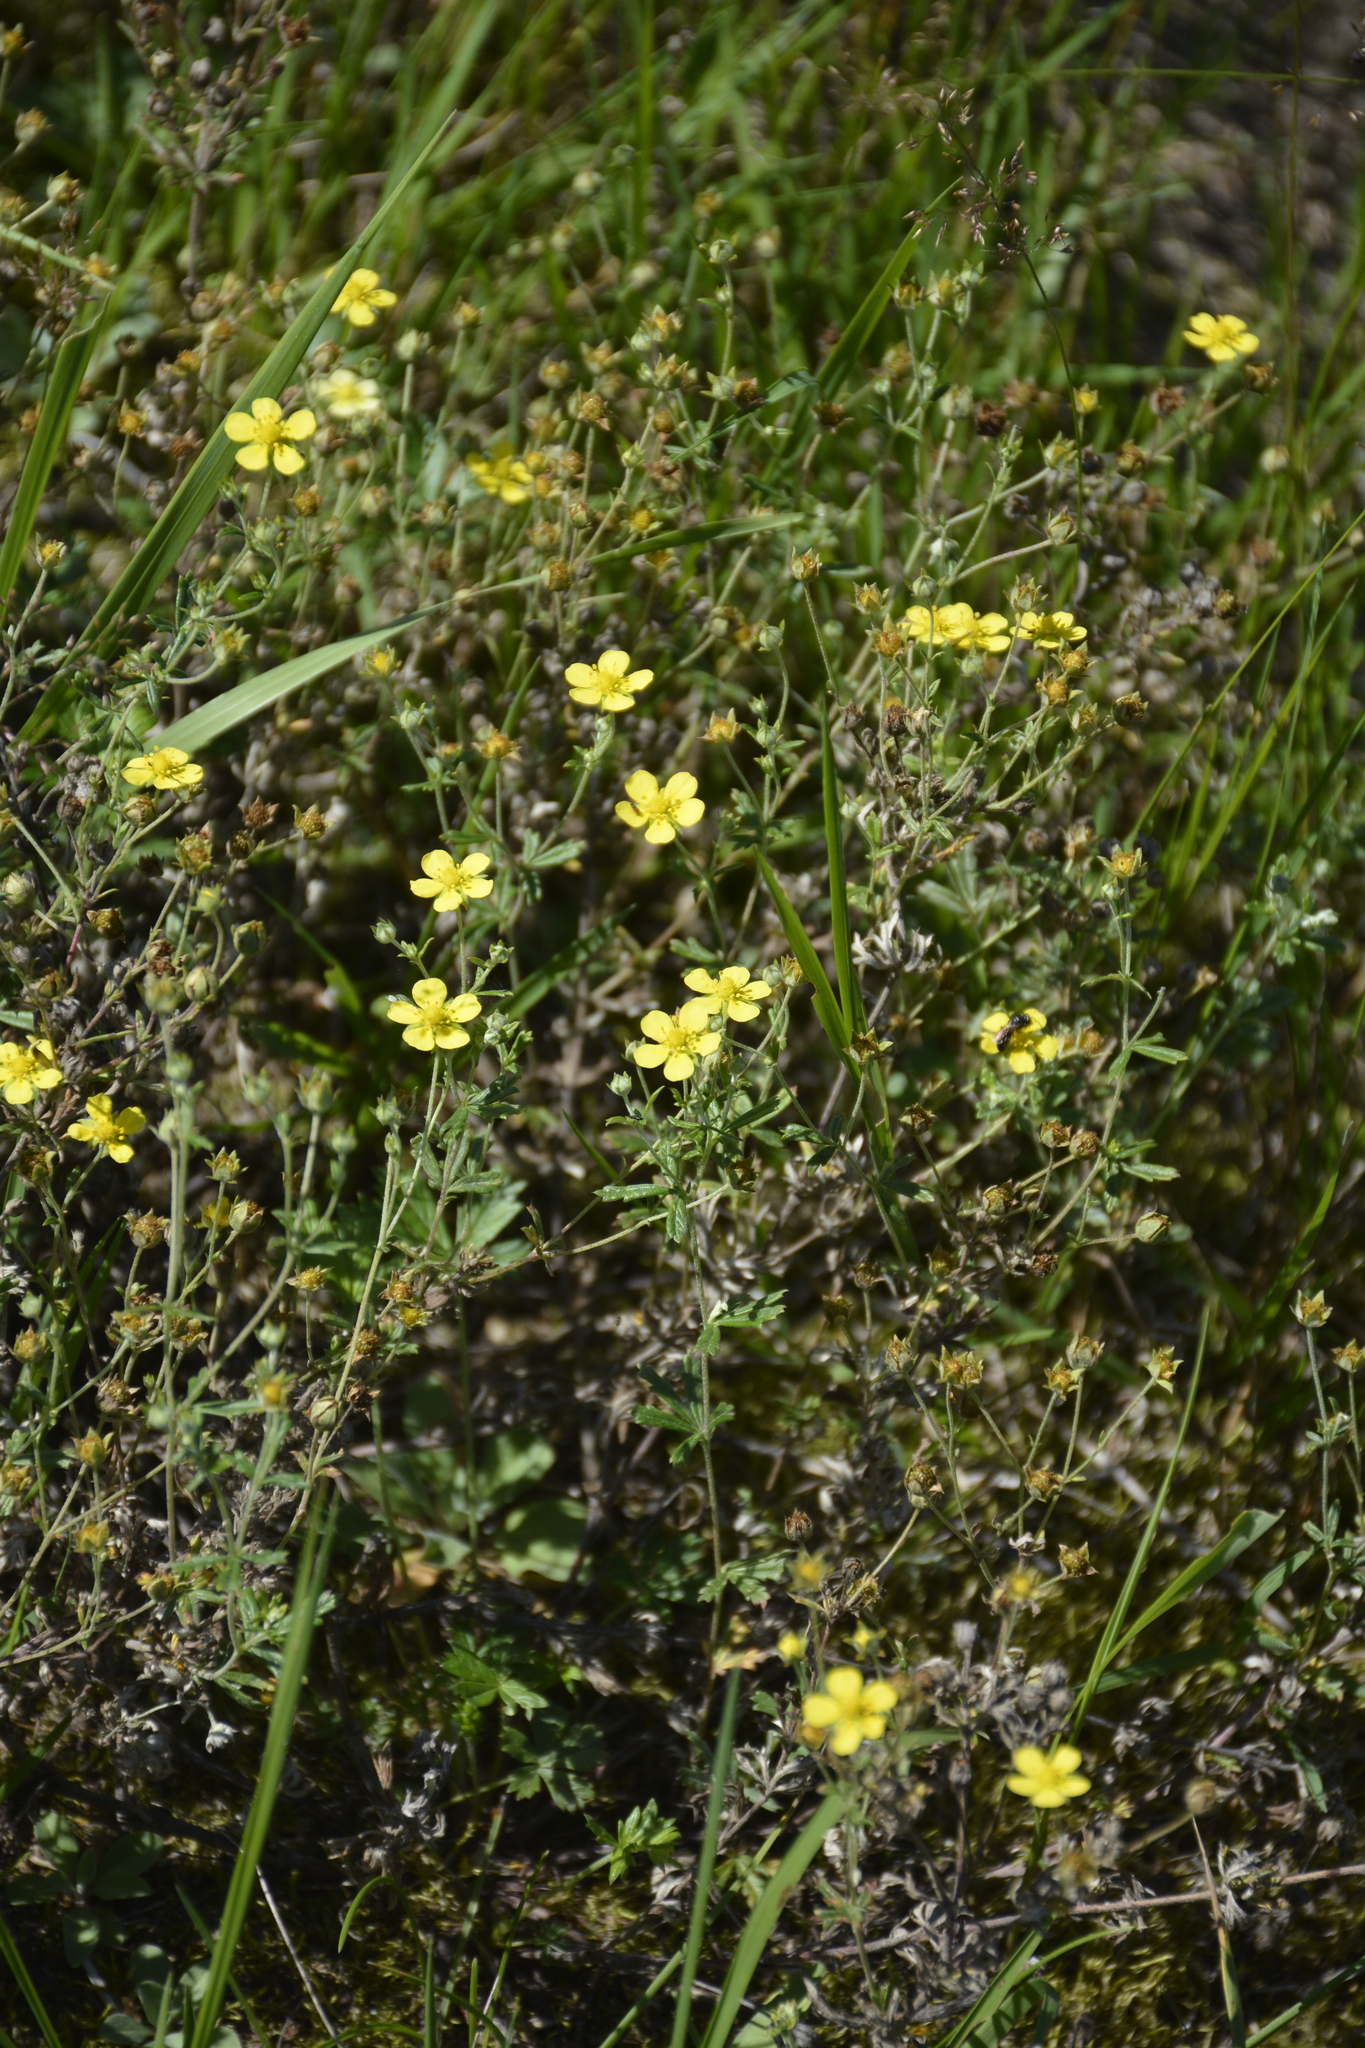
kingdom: Plantae
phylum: Tracheophyta
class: Magnoliopsida
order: Rosales
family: Rosaceae
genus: Potentilla
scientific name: Potentilla argentea
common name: Hoary cinquefoil
